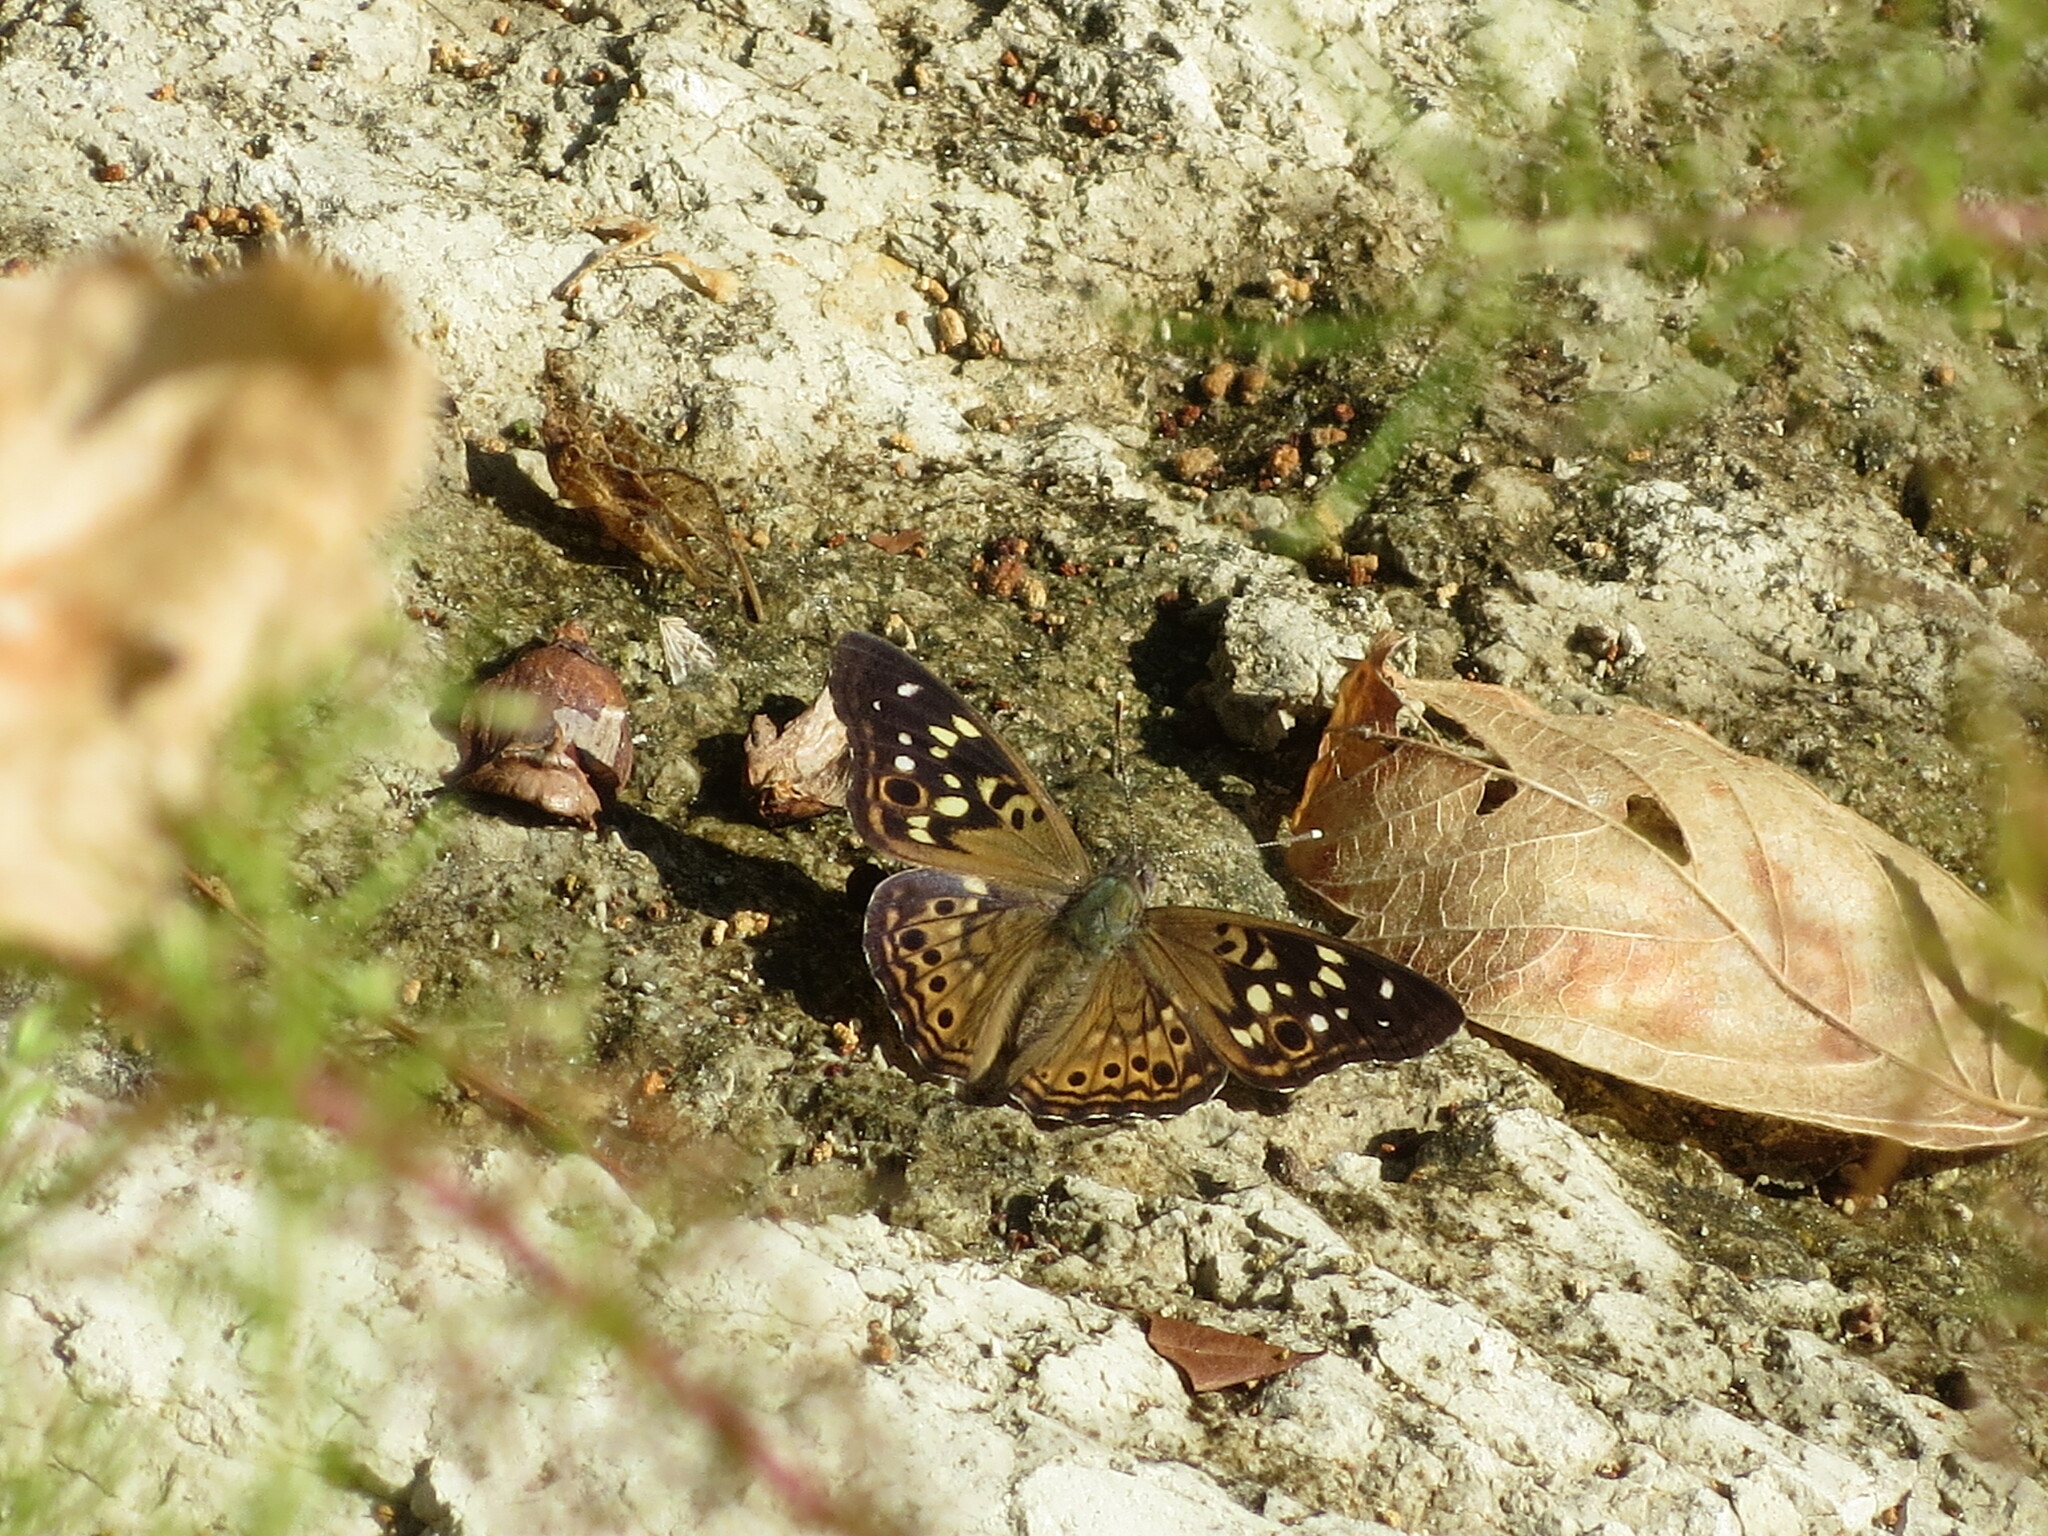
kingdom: Animalia
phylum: Arthropoda
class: Insecta
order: Lepidoptera
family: Nymphalidae
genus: Asterocampa
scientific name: Asterocampa celtis
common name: Hackberry emperor
